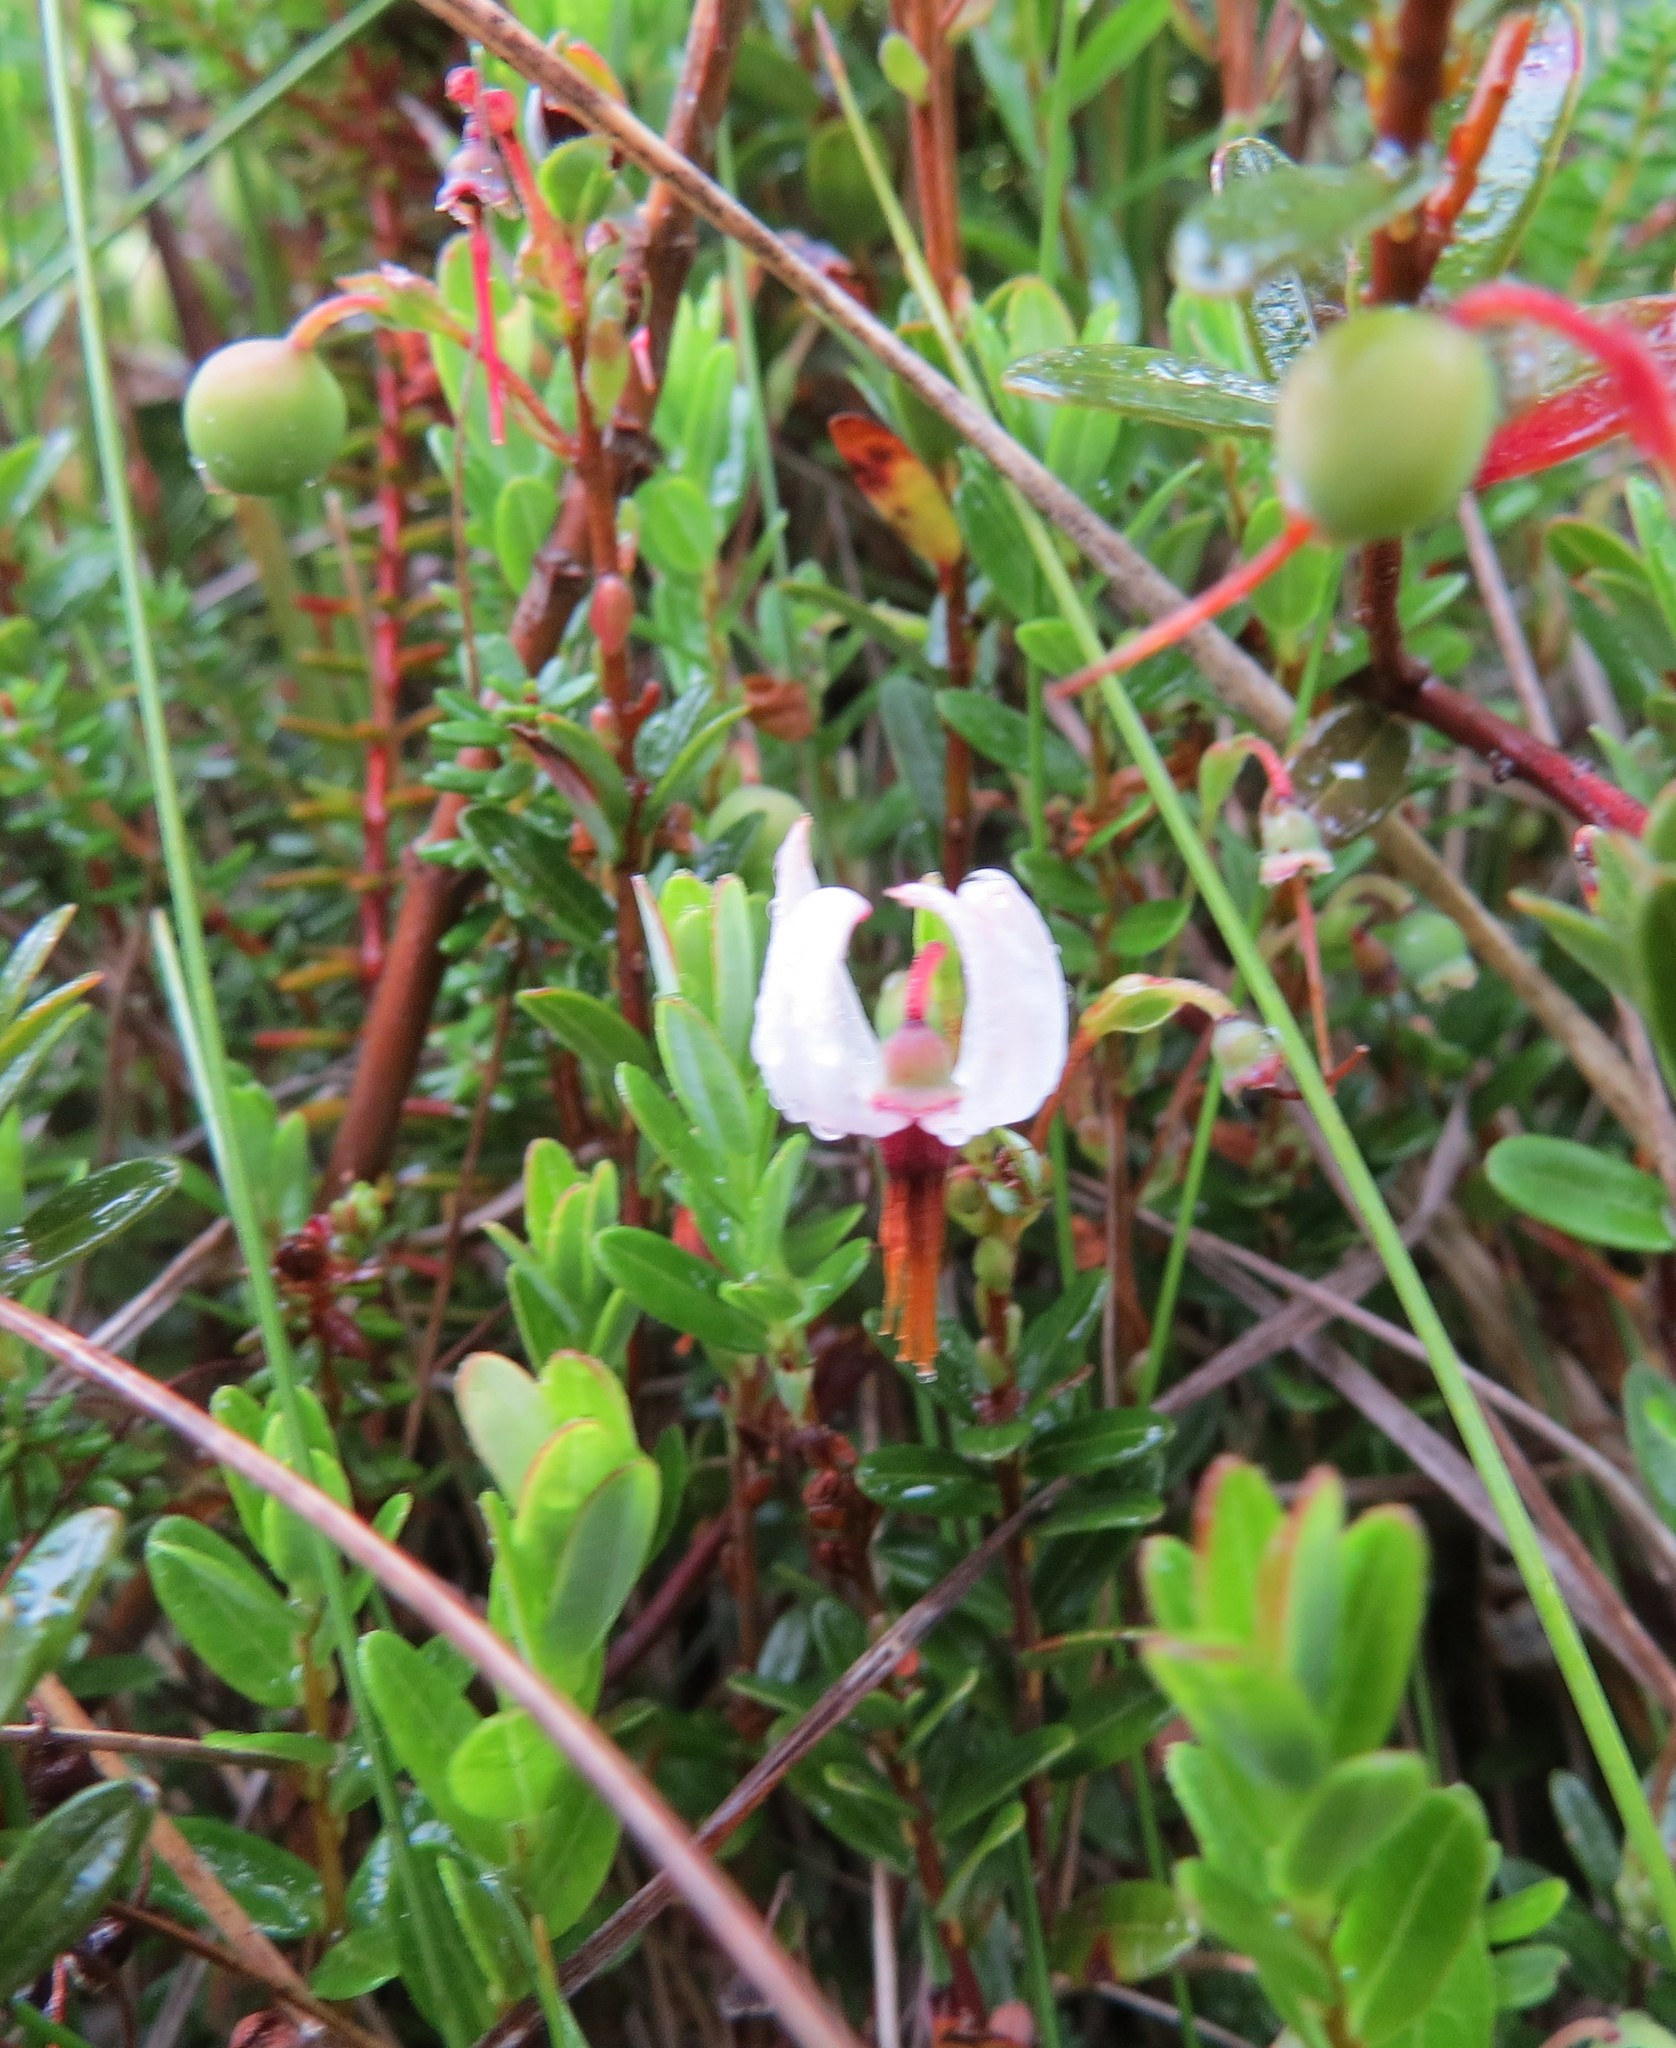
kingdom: Plantae
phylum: Tracheophyta
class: Magnoliopsida
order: Ericales
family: Ericaceae
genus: Vaccinium
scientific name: Vaccinium macrocarpon
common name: American cranberry
